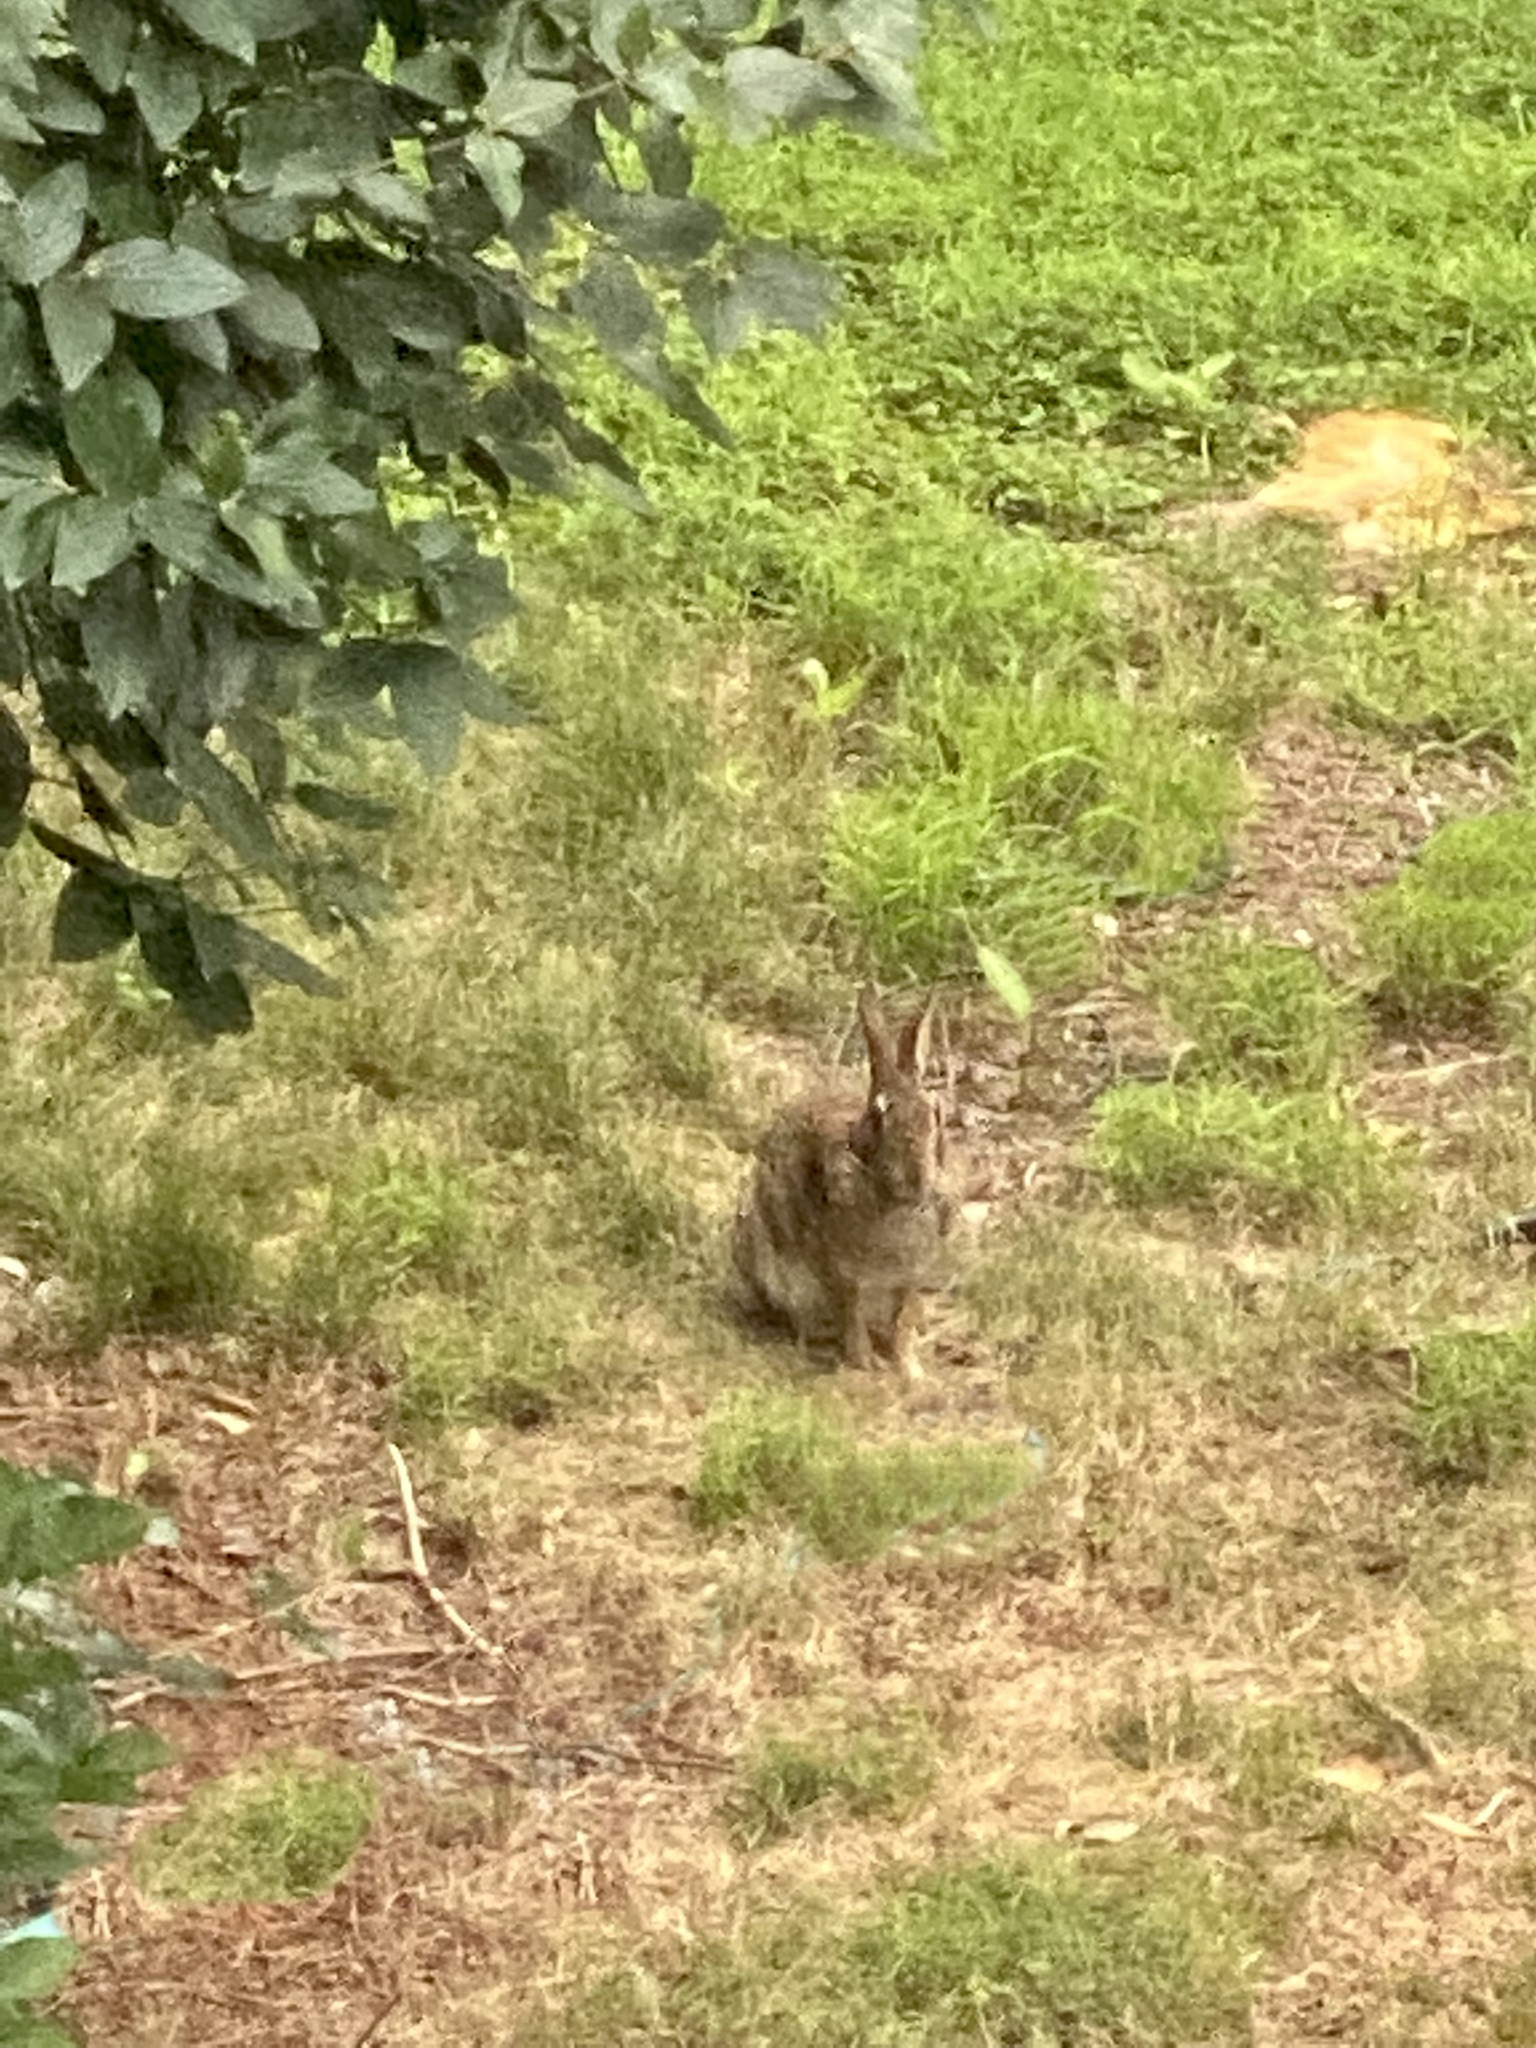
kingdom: Animalia
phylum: Chordata
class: Mammalia
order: Lagomorpha
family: Leporidae
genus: Sylvilagus
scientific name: Sylvilagus floridanus
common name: Eastern cottontail
